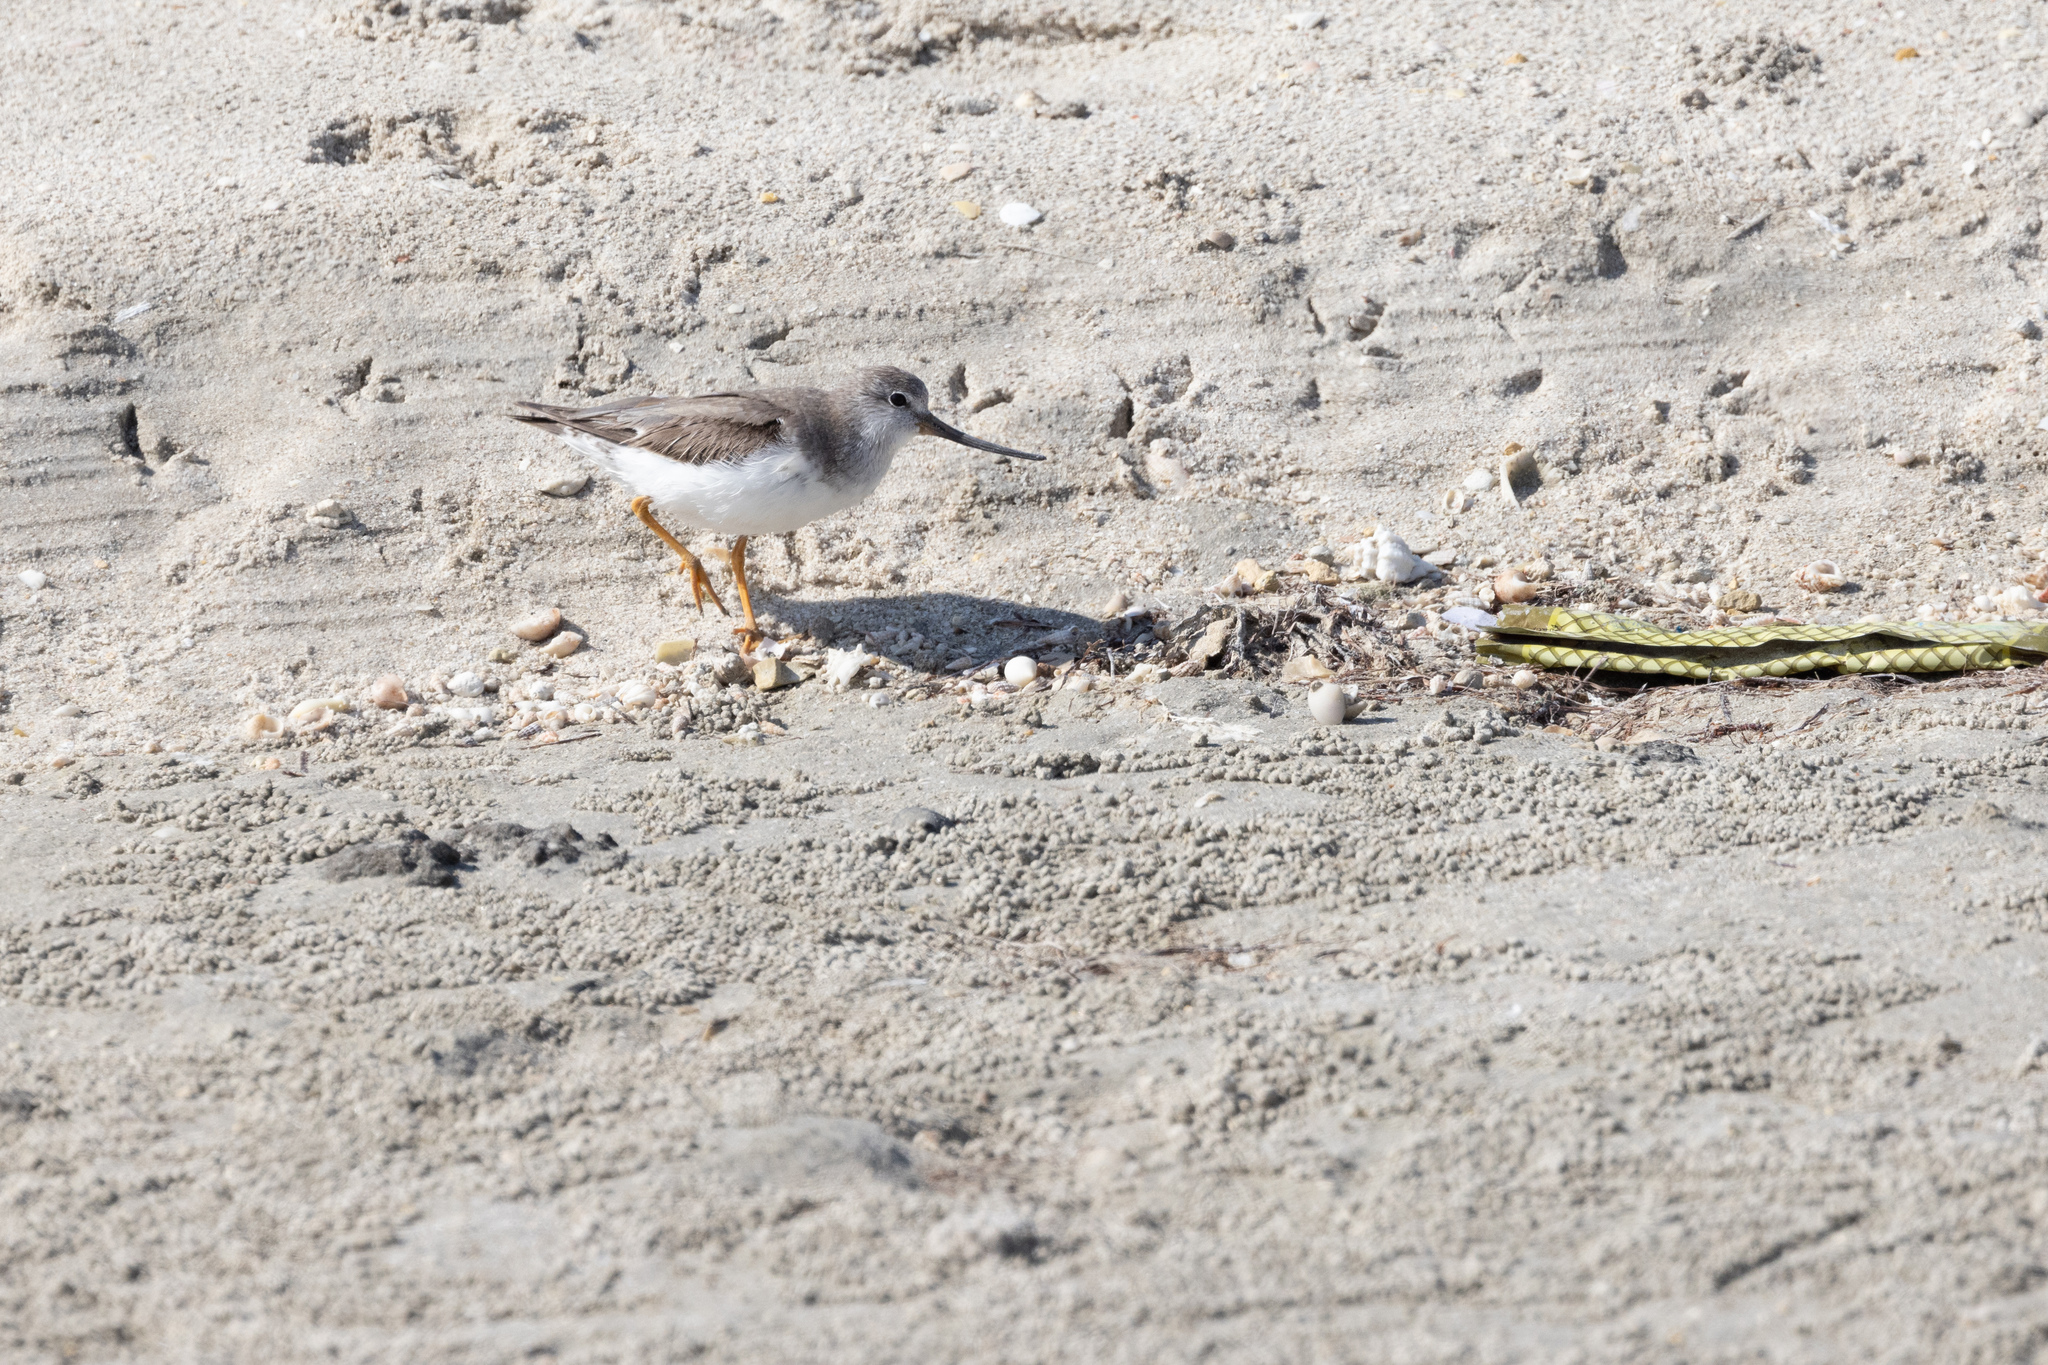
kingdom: Animalia
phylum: Chordata
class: Aves
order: Charadriiformes
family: Scolopacidae
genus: Xenus
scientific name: Xenus cinereus
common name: Terek sandpiper
